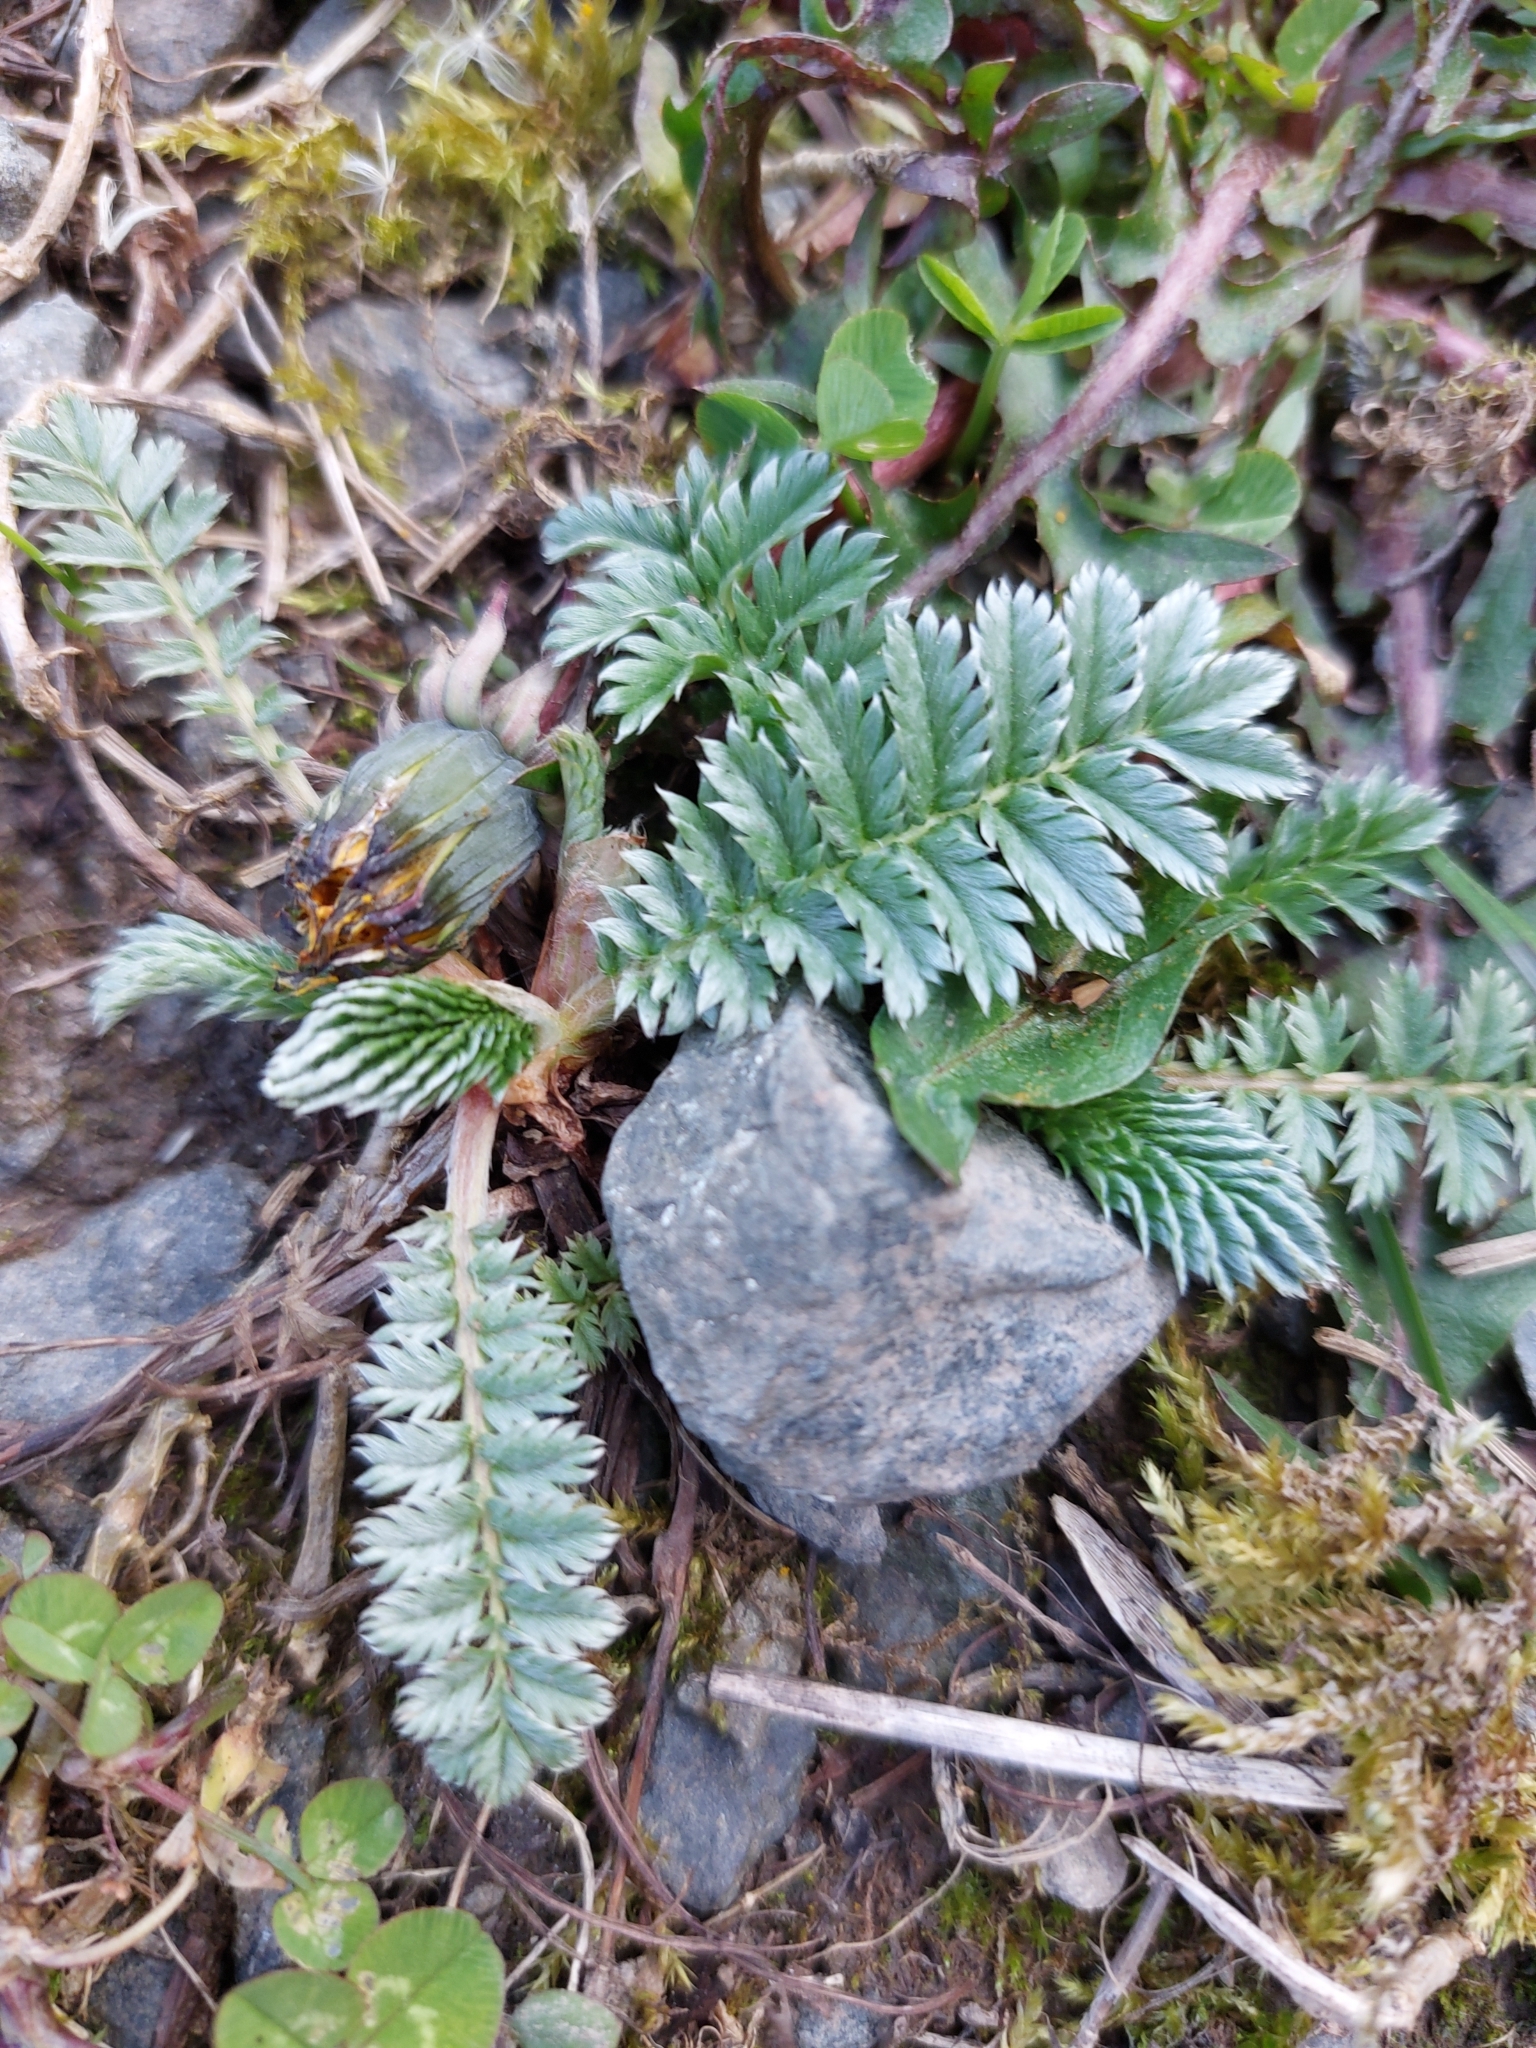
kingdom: Plantae
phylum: Tracheophyta
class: Magnoliopsida
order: Rosales
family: Rosaceae
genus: Argentina
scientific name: Argentina anserina
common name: Common silverweed
